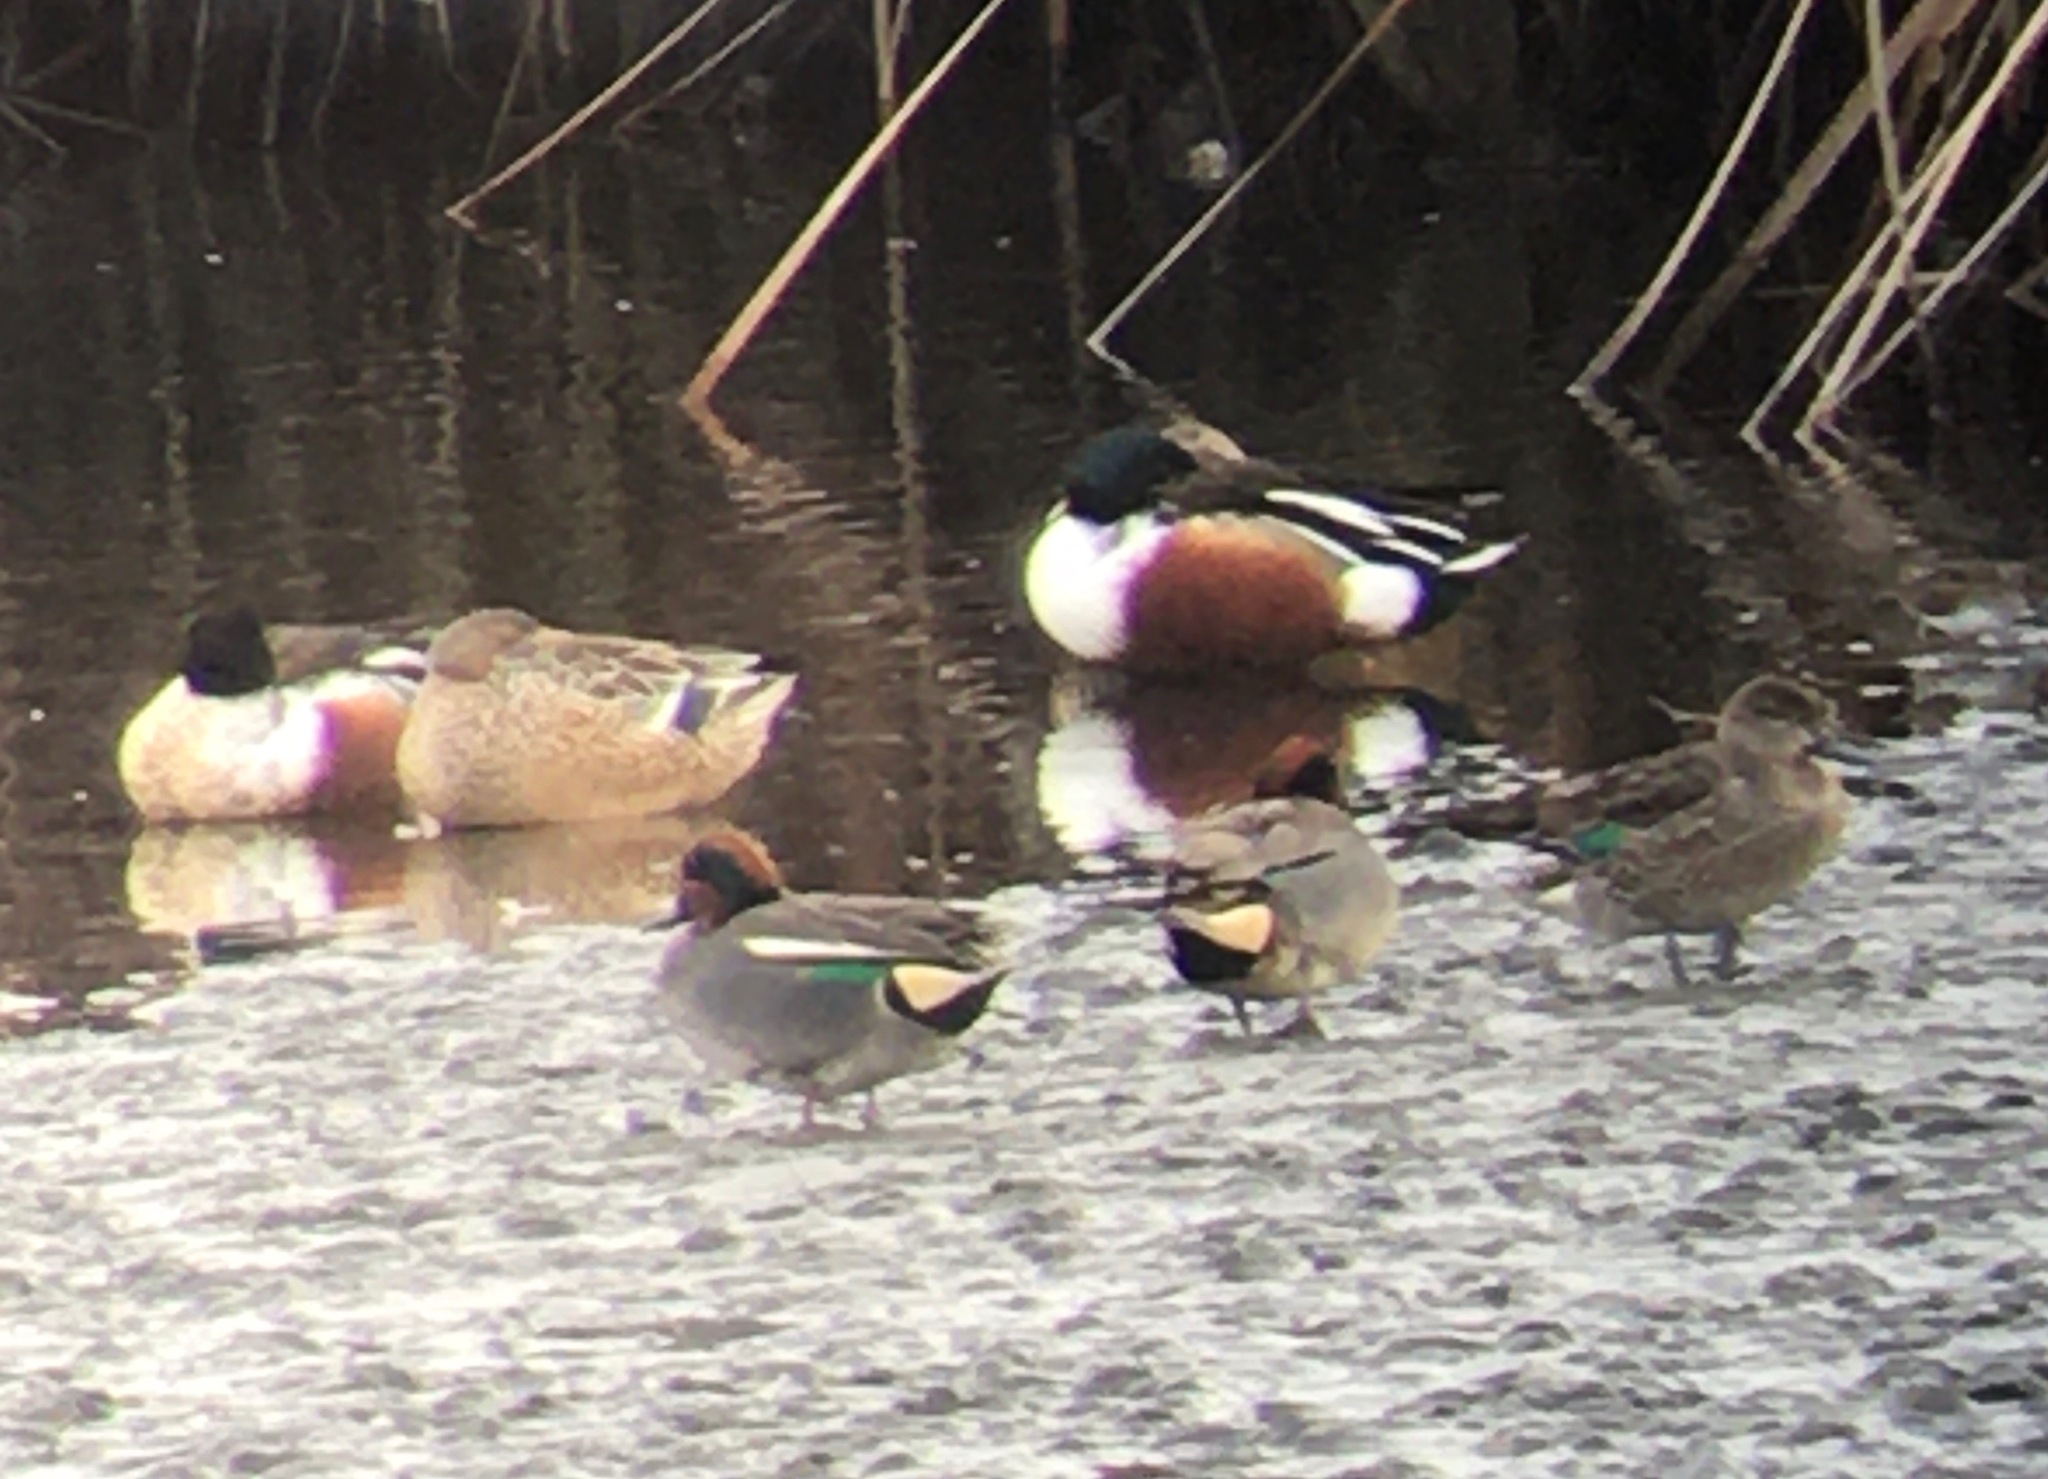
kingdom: Animalia
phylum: Chordata
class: Aves
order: Anseriformes
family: Anatidae
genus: Spatula
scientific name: Spatula clypeata
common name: Northern shoveler
